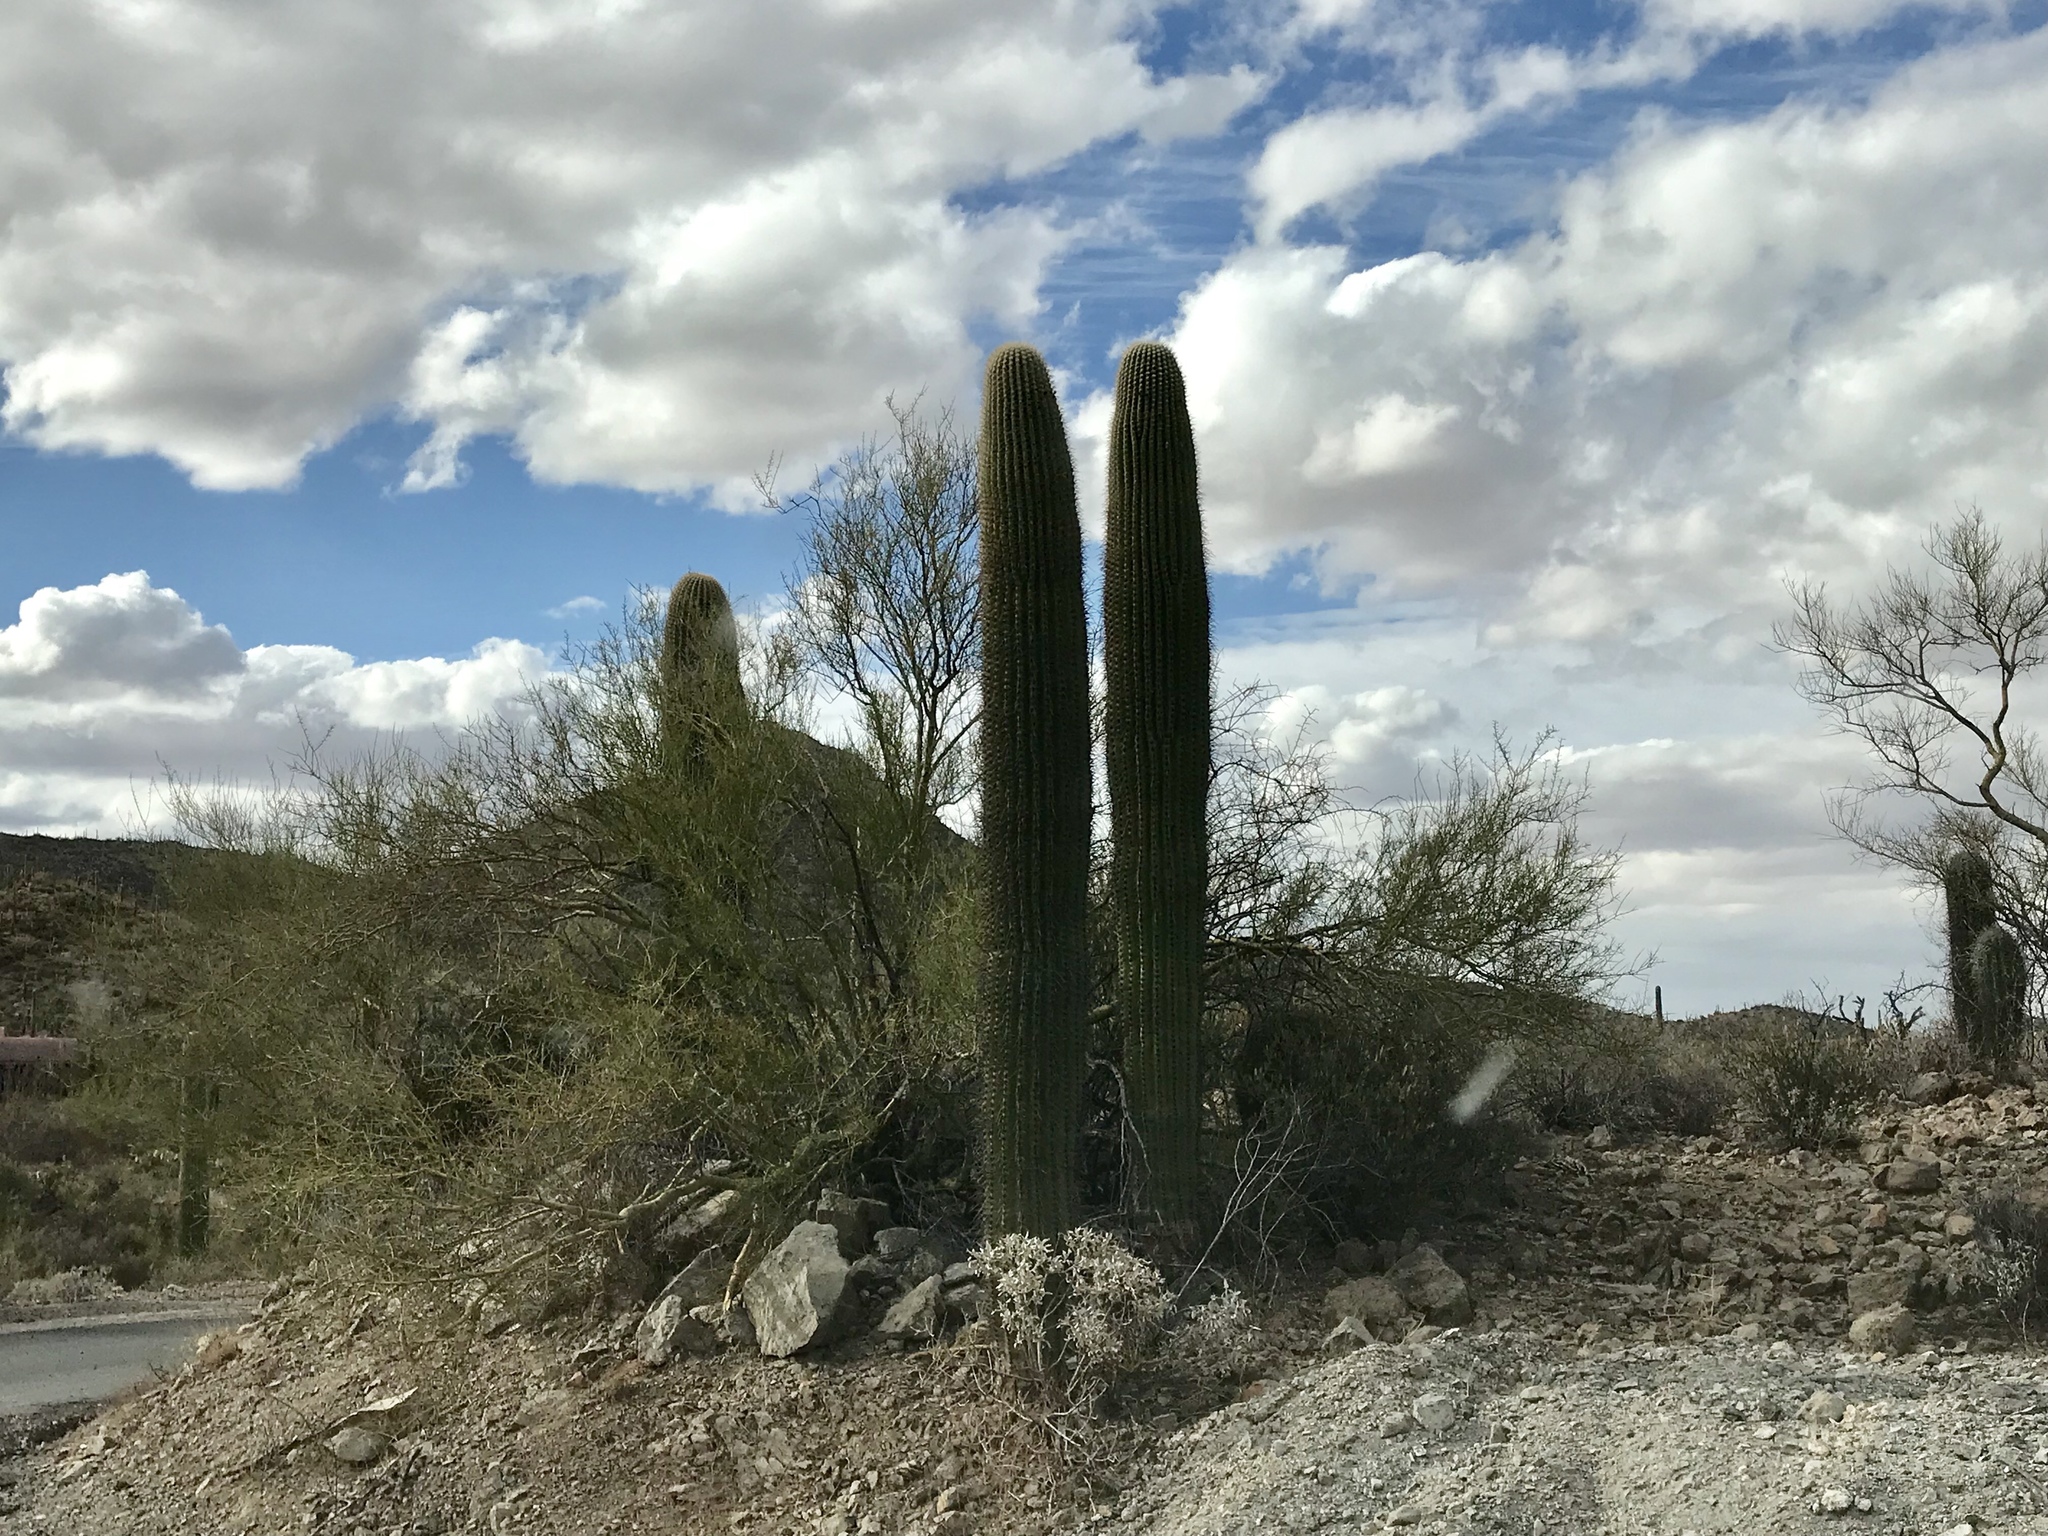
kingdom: Plantae
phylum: Tracheophyta
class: Magnoliopsida
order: Caryophyllales
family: Cactaceae
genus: Carnegiea
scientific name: Carnegiea gigantea
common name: Saguaro
